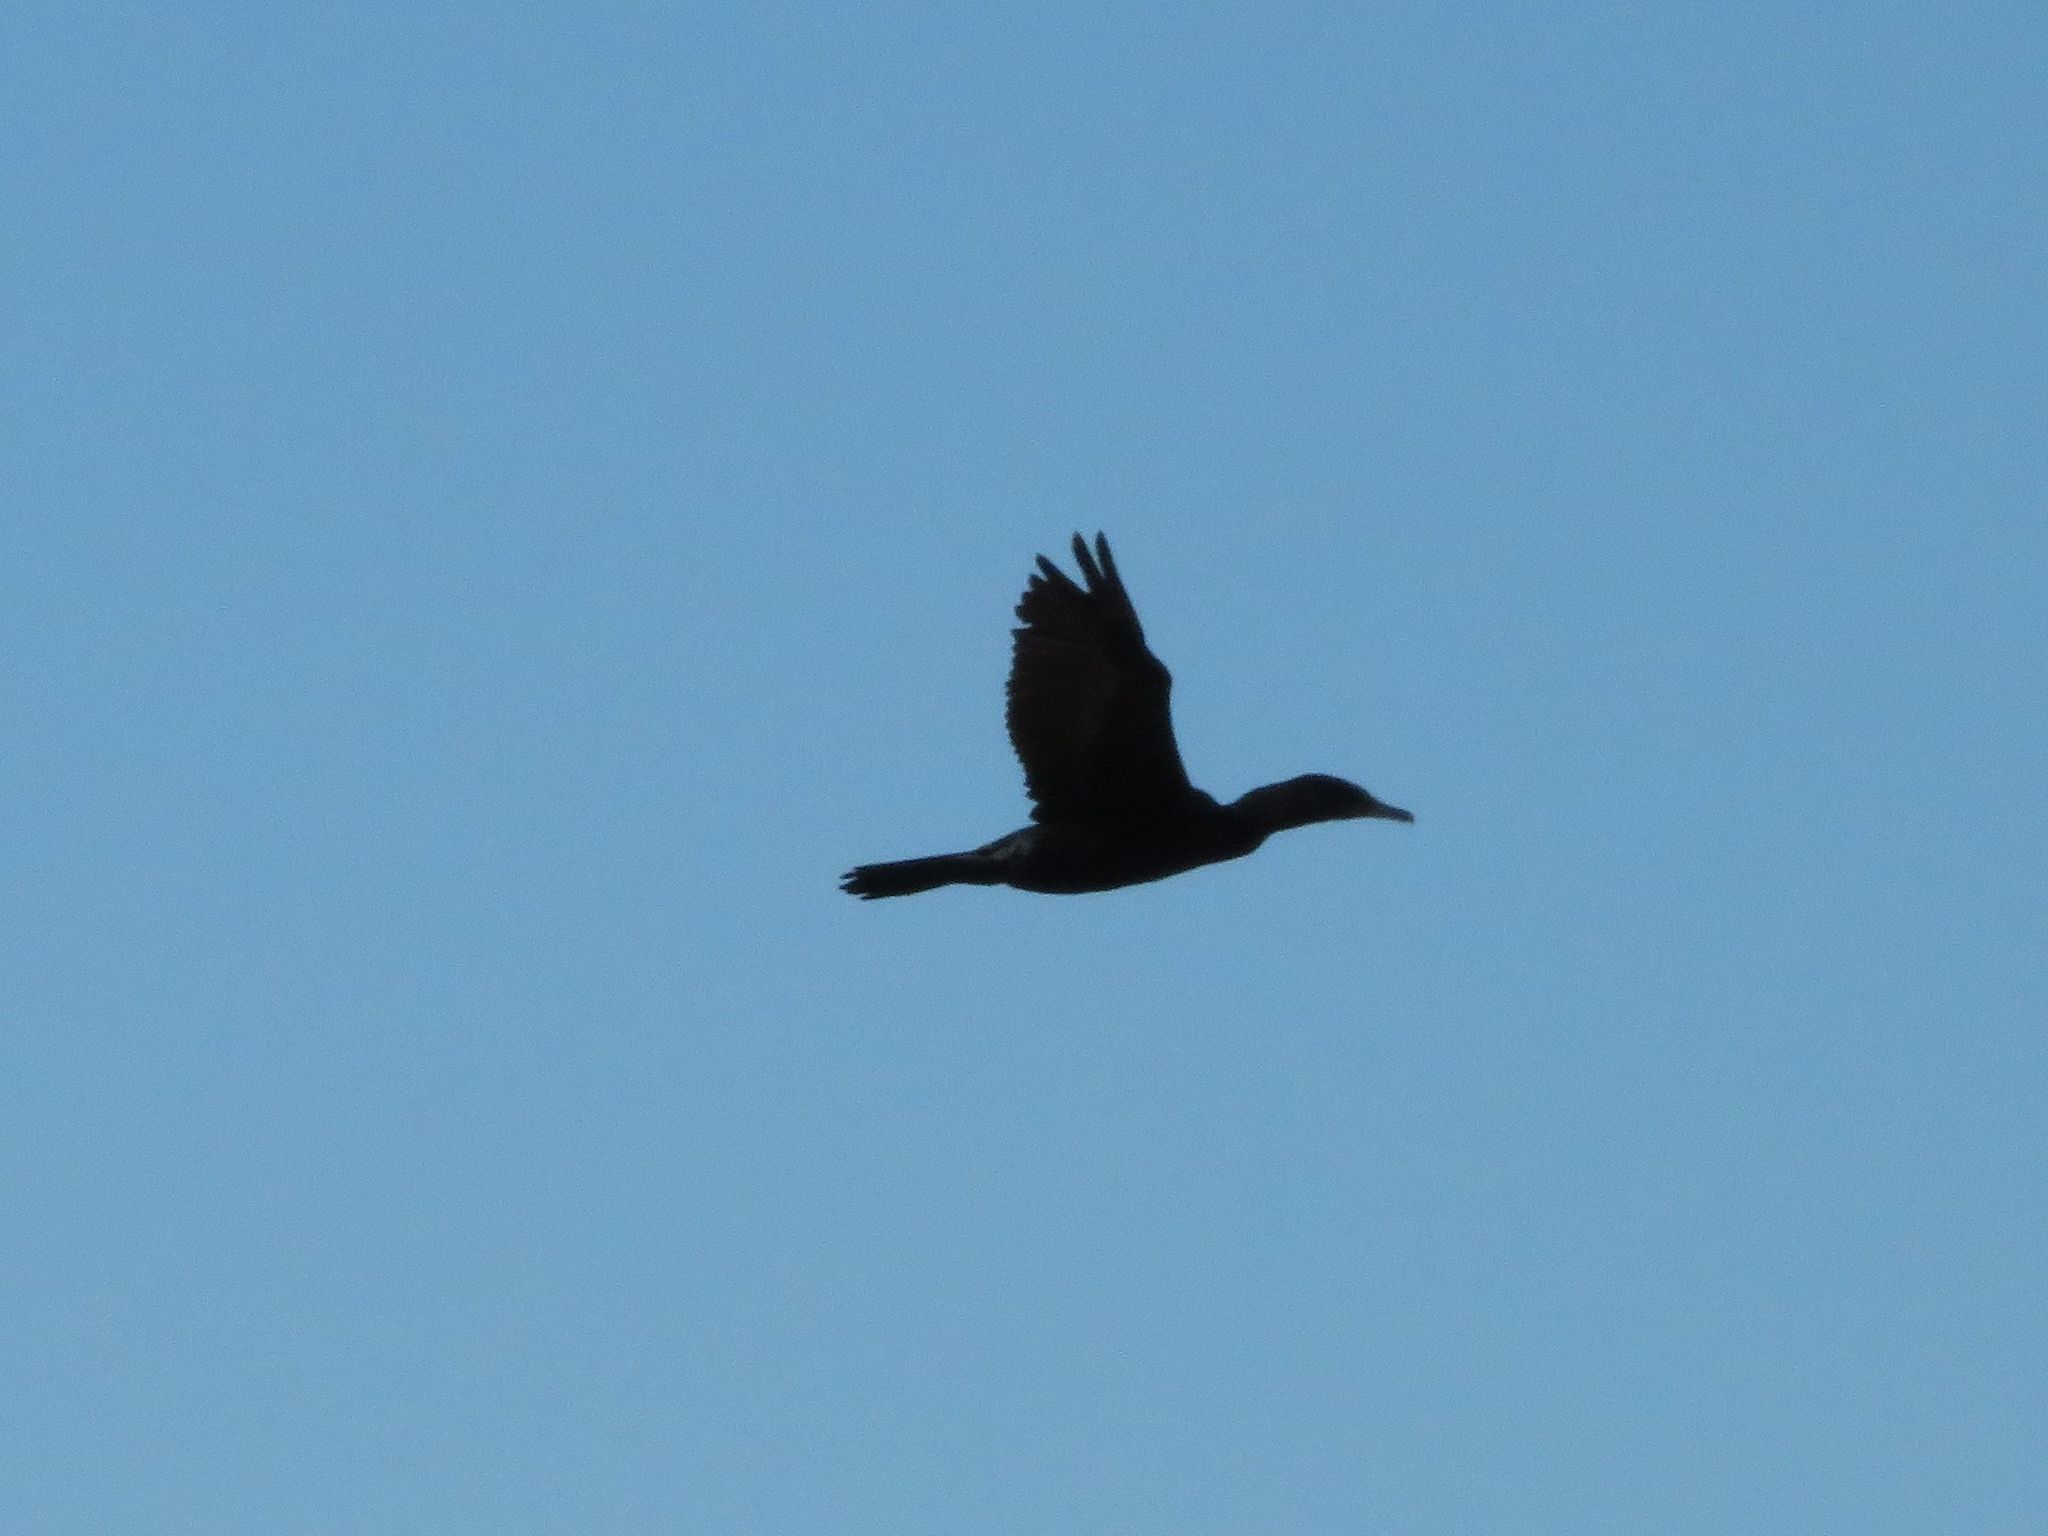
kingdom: Animalia
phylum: Chordata
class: Aves
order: Suliformes
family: Phalacrocoracidae
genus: Phalacrocorax
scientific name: Phalacrocorax brasilianus
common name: Neotropic cormorant
